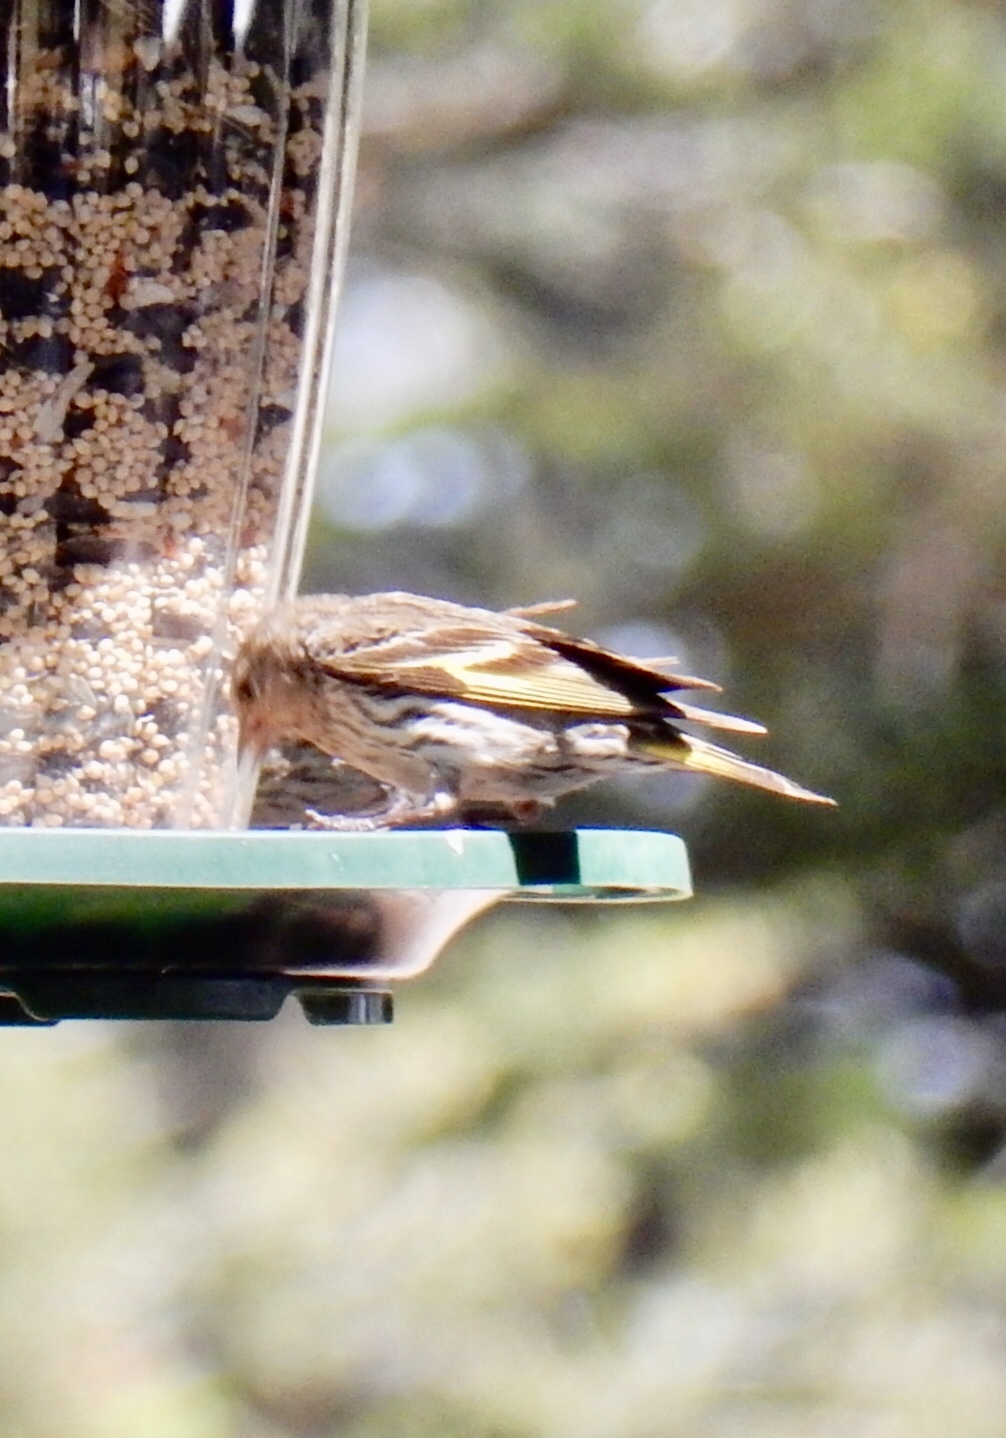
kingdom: Animalia
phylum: Chordata
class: Aves
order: Passeriformes
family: Fringillidae
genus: Spinus
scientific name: Spinus pinus
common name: Pine siskin
